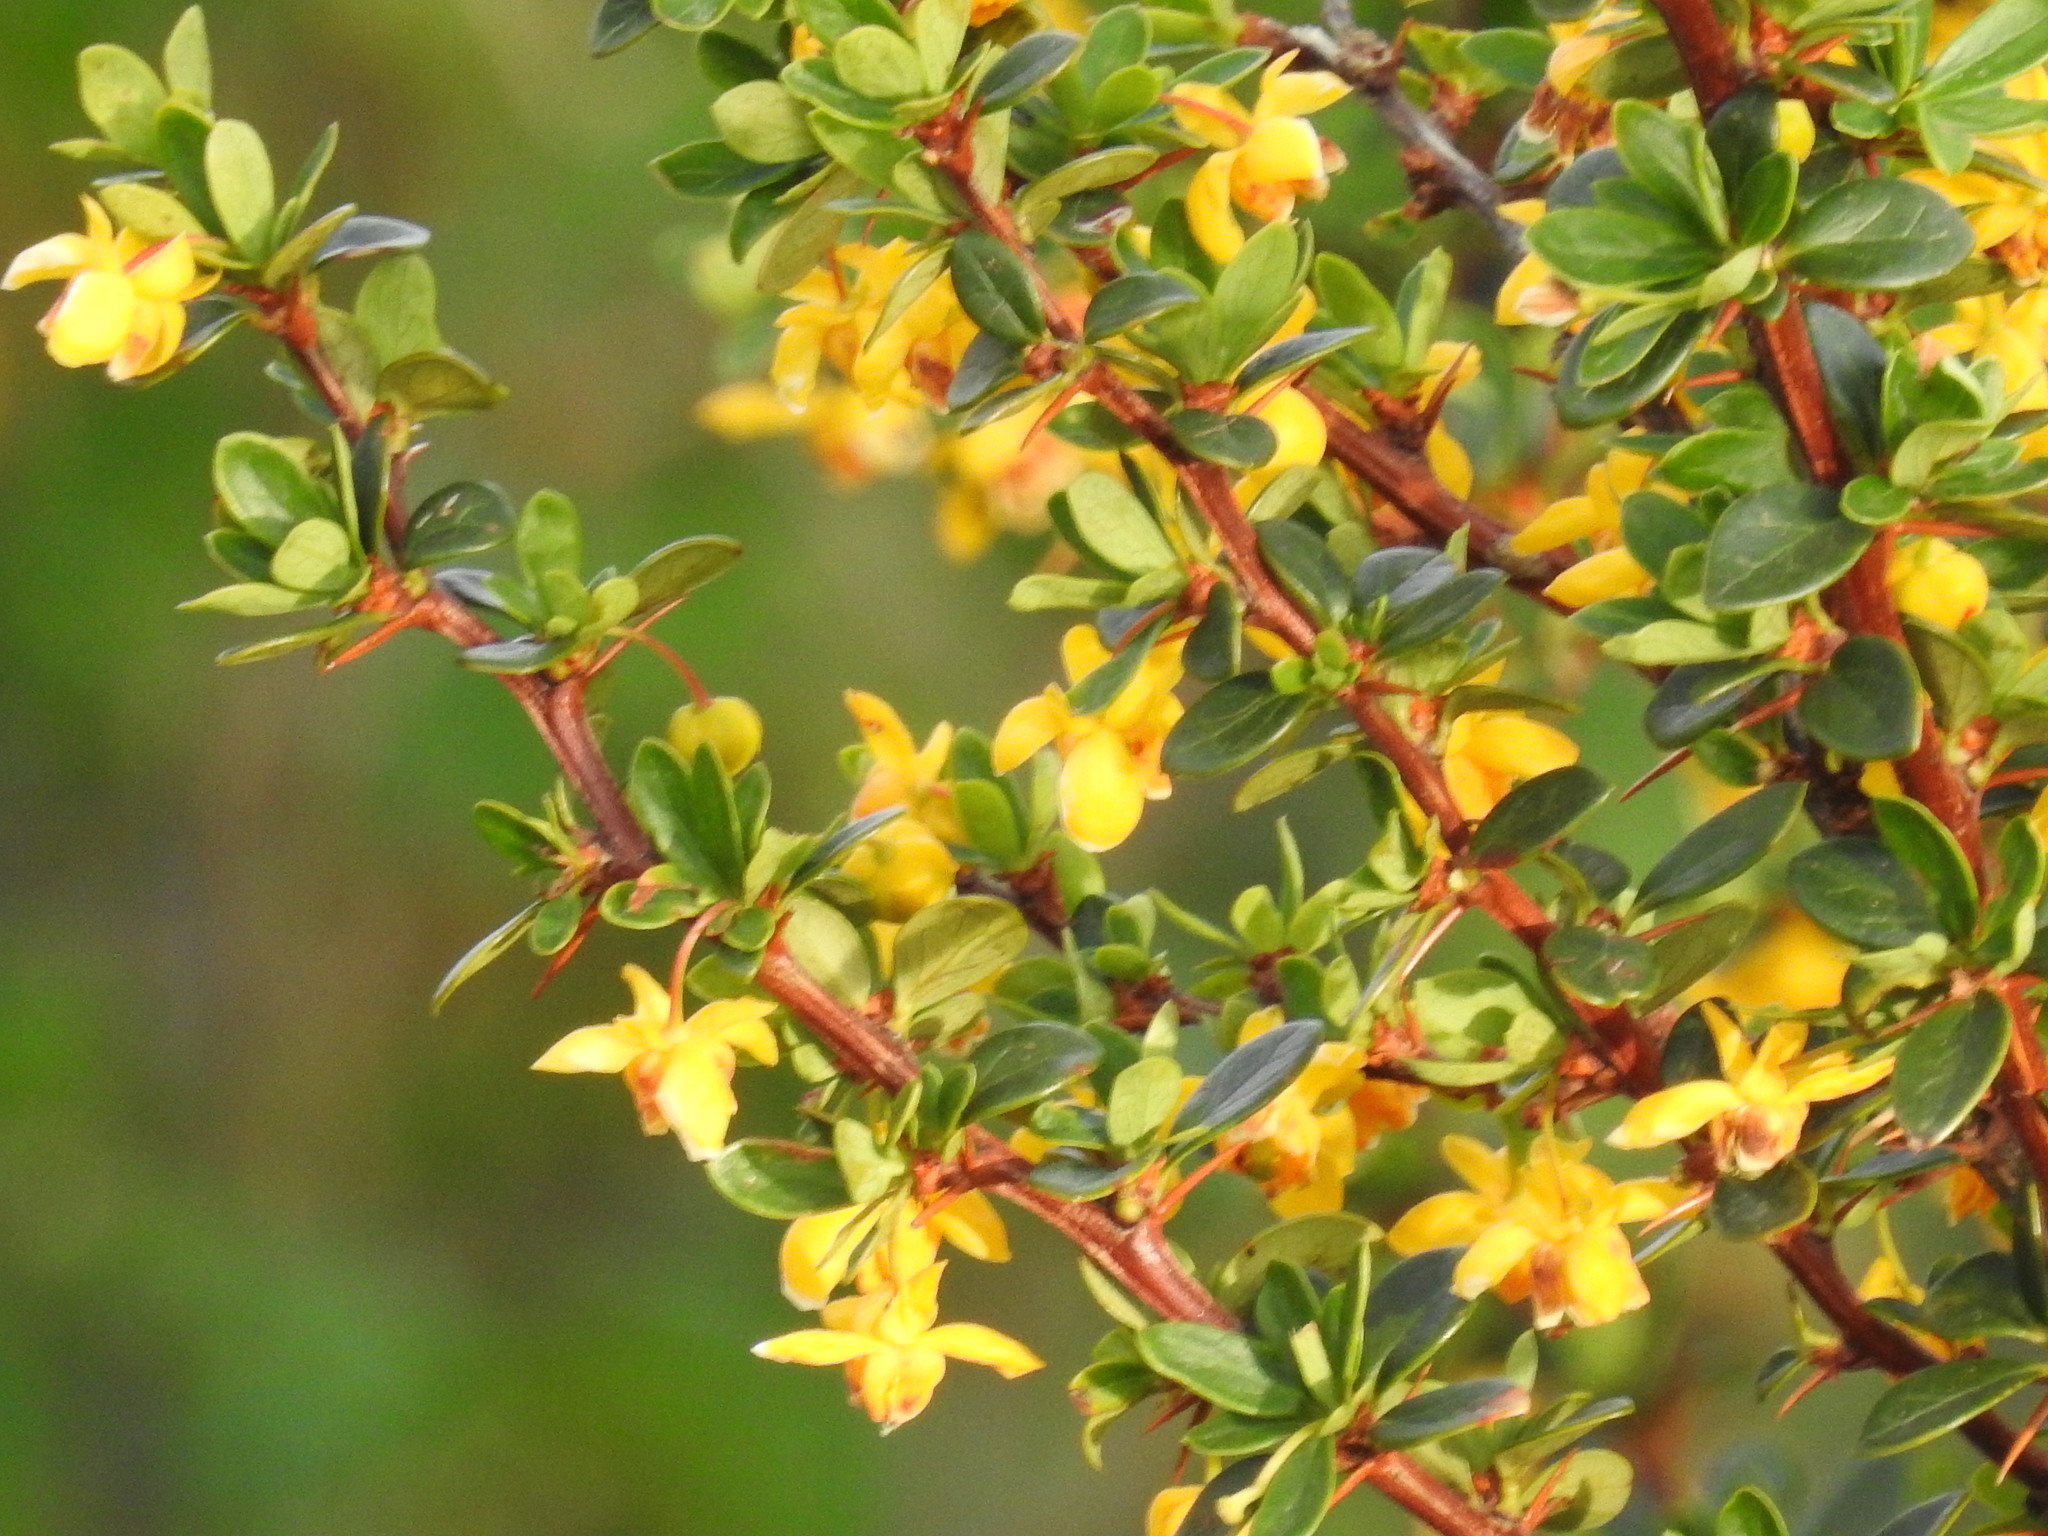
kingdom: Plantae
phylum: Tracheophyta
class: Magnoliopsida
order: Ranunculales
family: Berberidaceae
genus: Berberis
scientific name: Berberis microphylla
